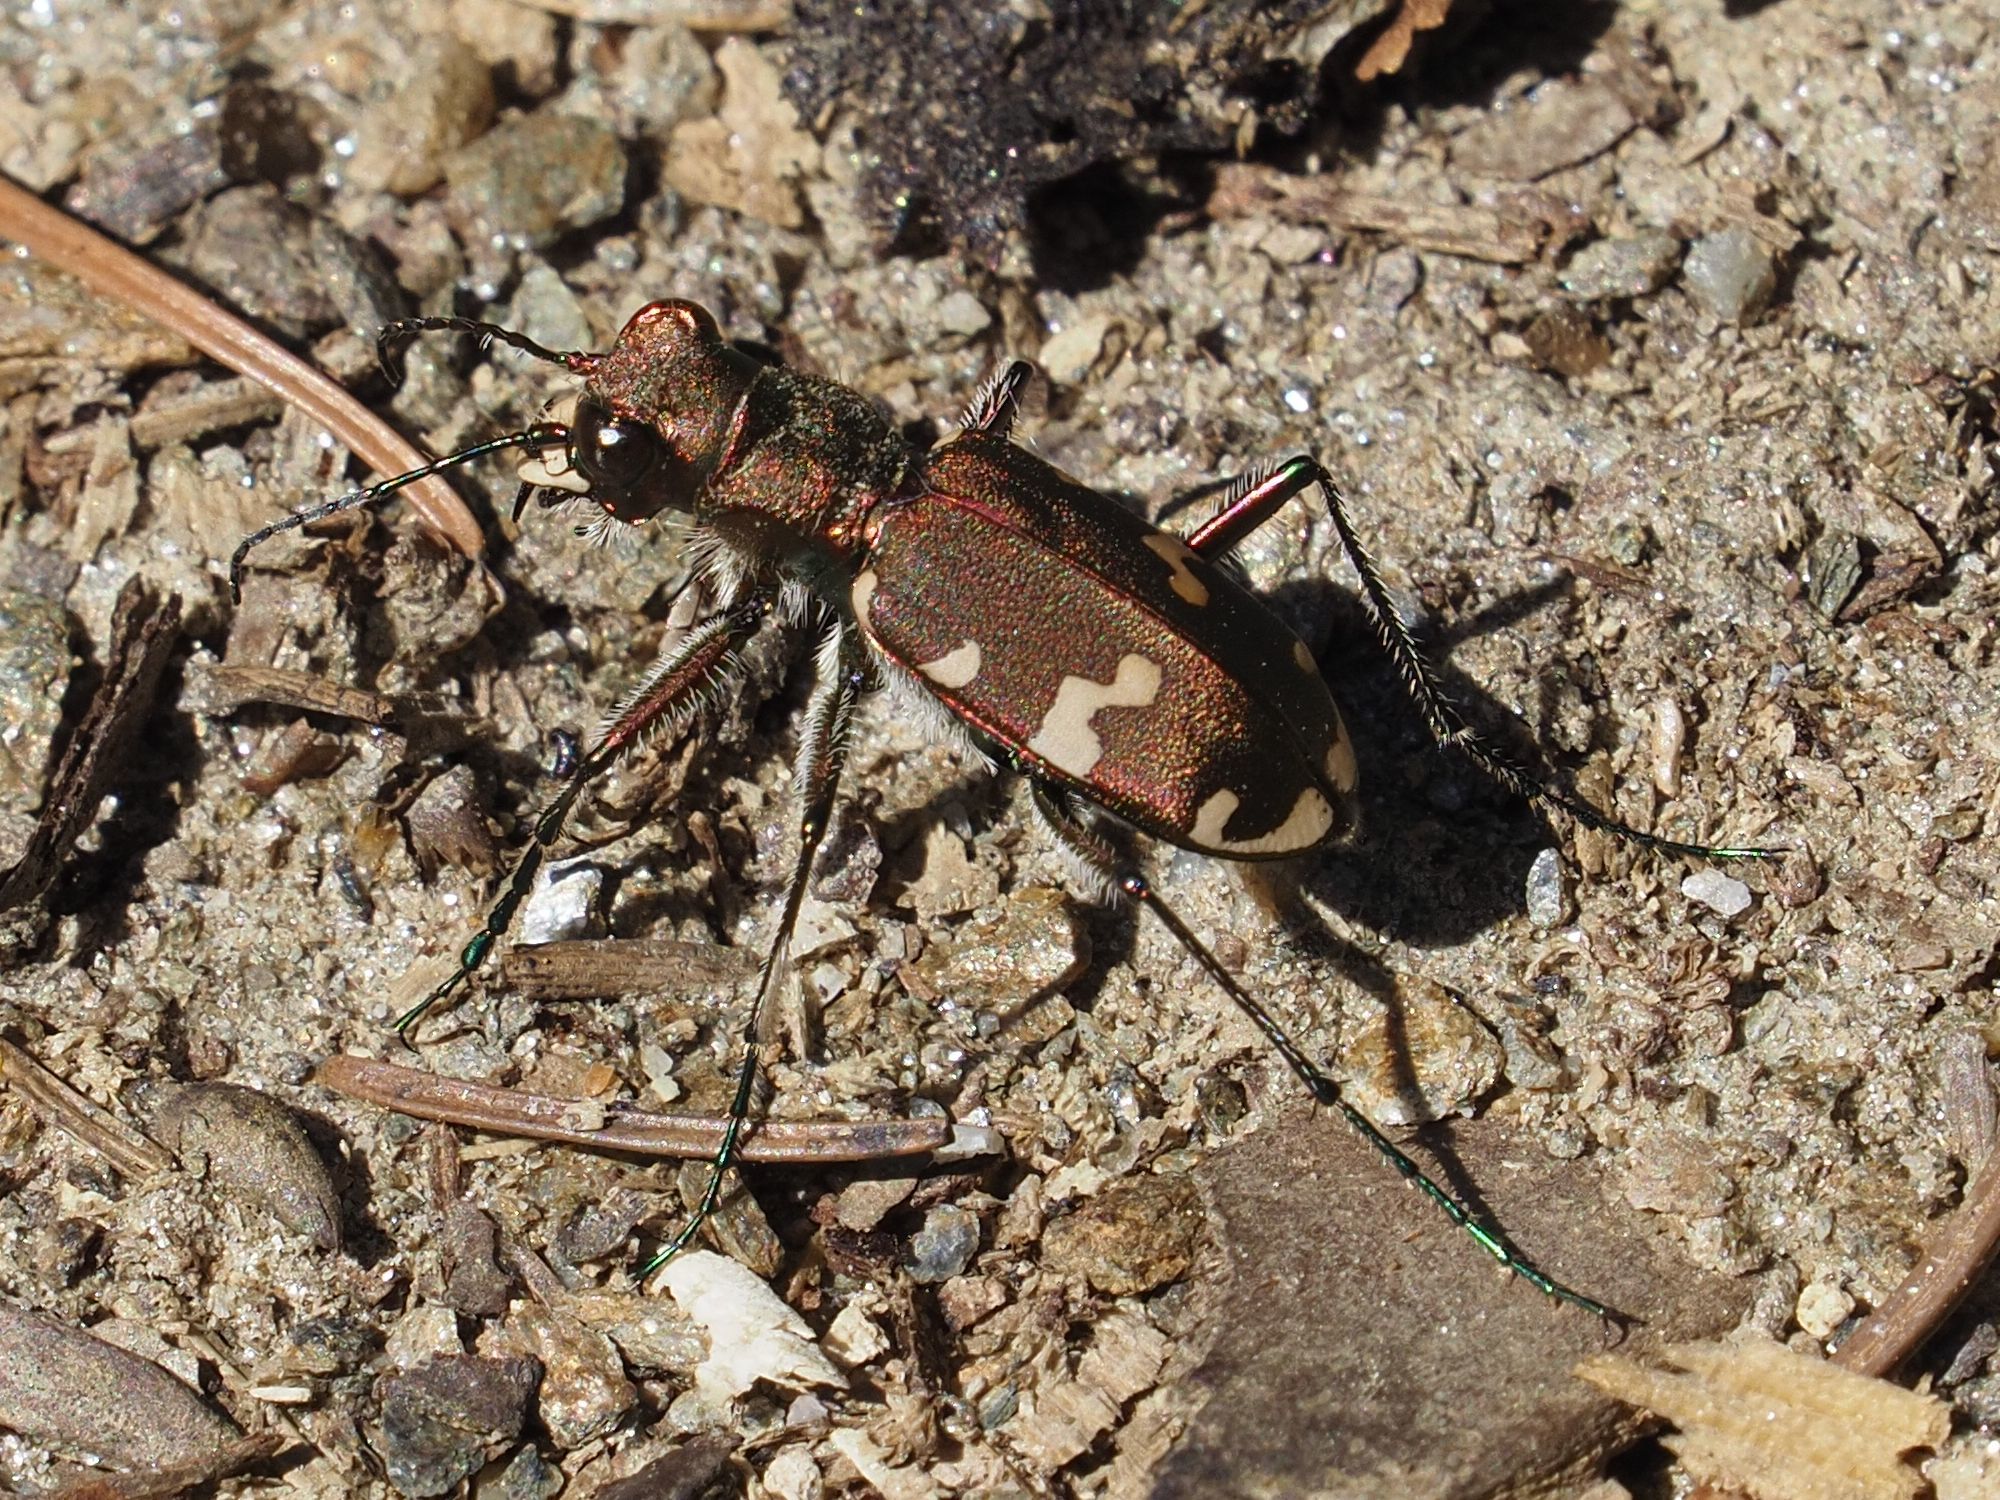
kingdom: Animalia
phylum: Arthropoda
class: Insecta
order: Coleoptera
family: Carabidae
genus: Cicindela
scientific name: Cicindela sylvicola
